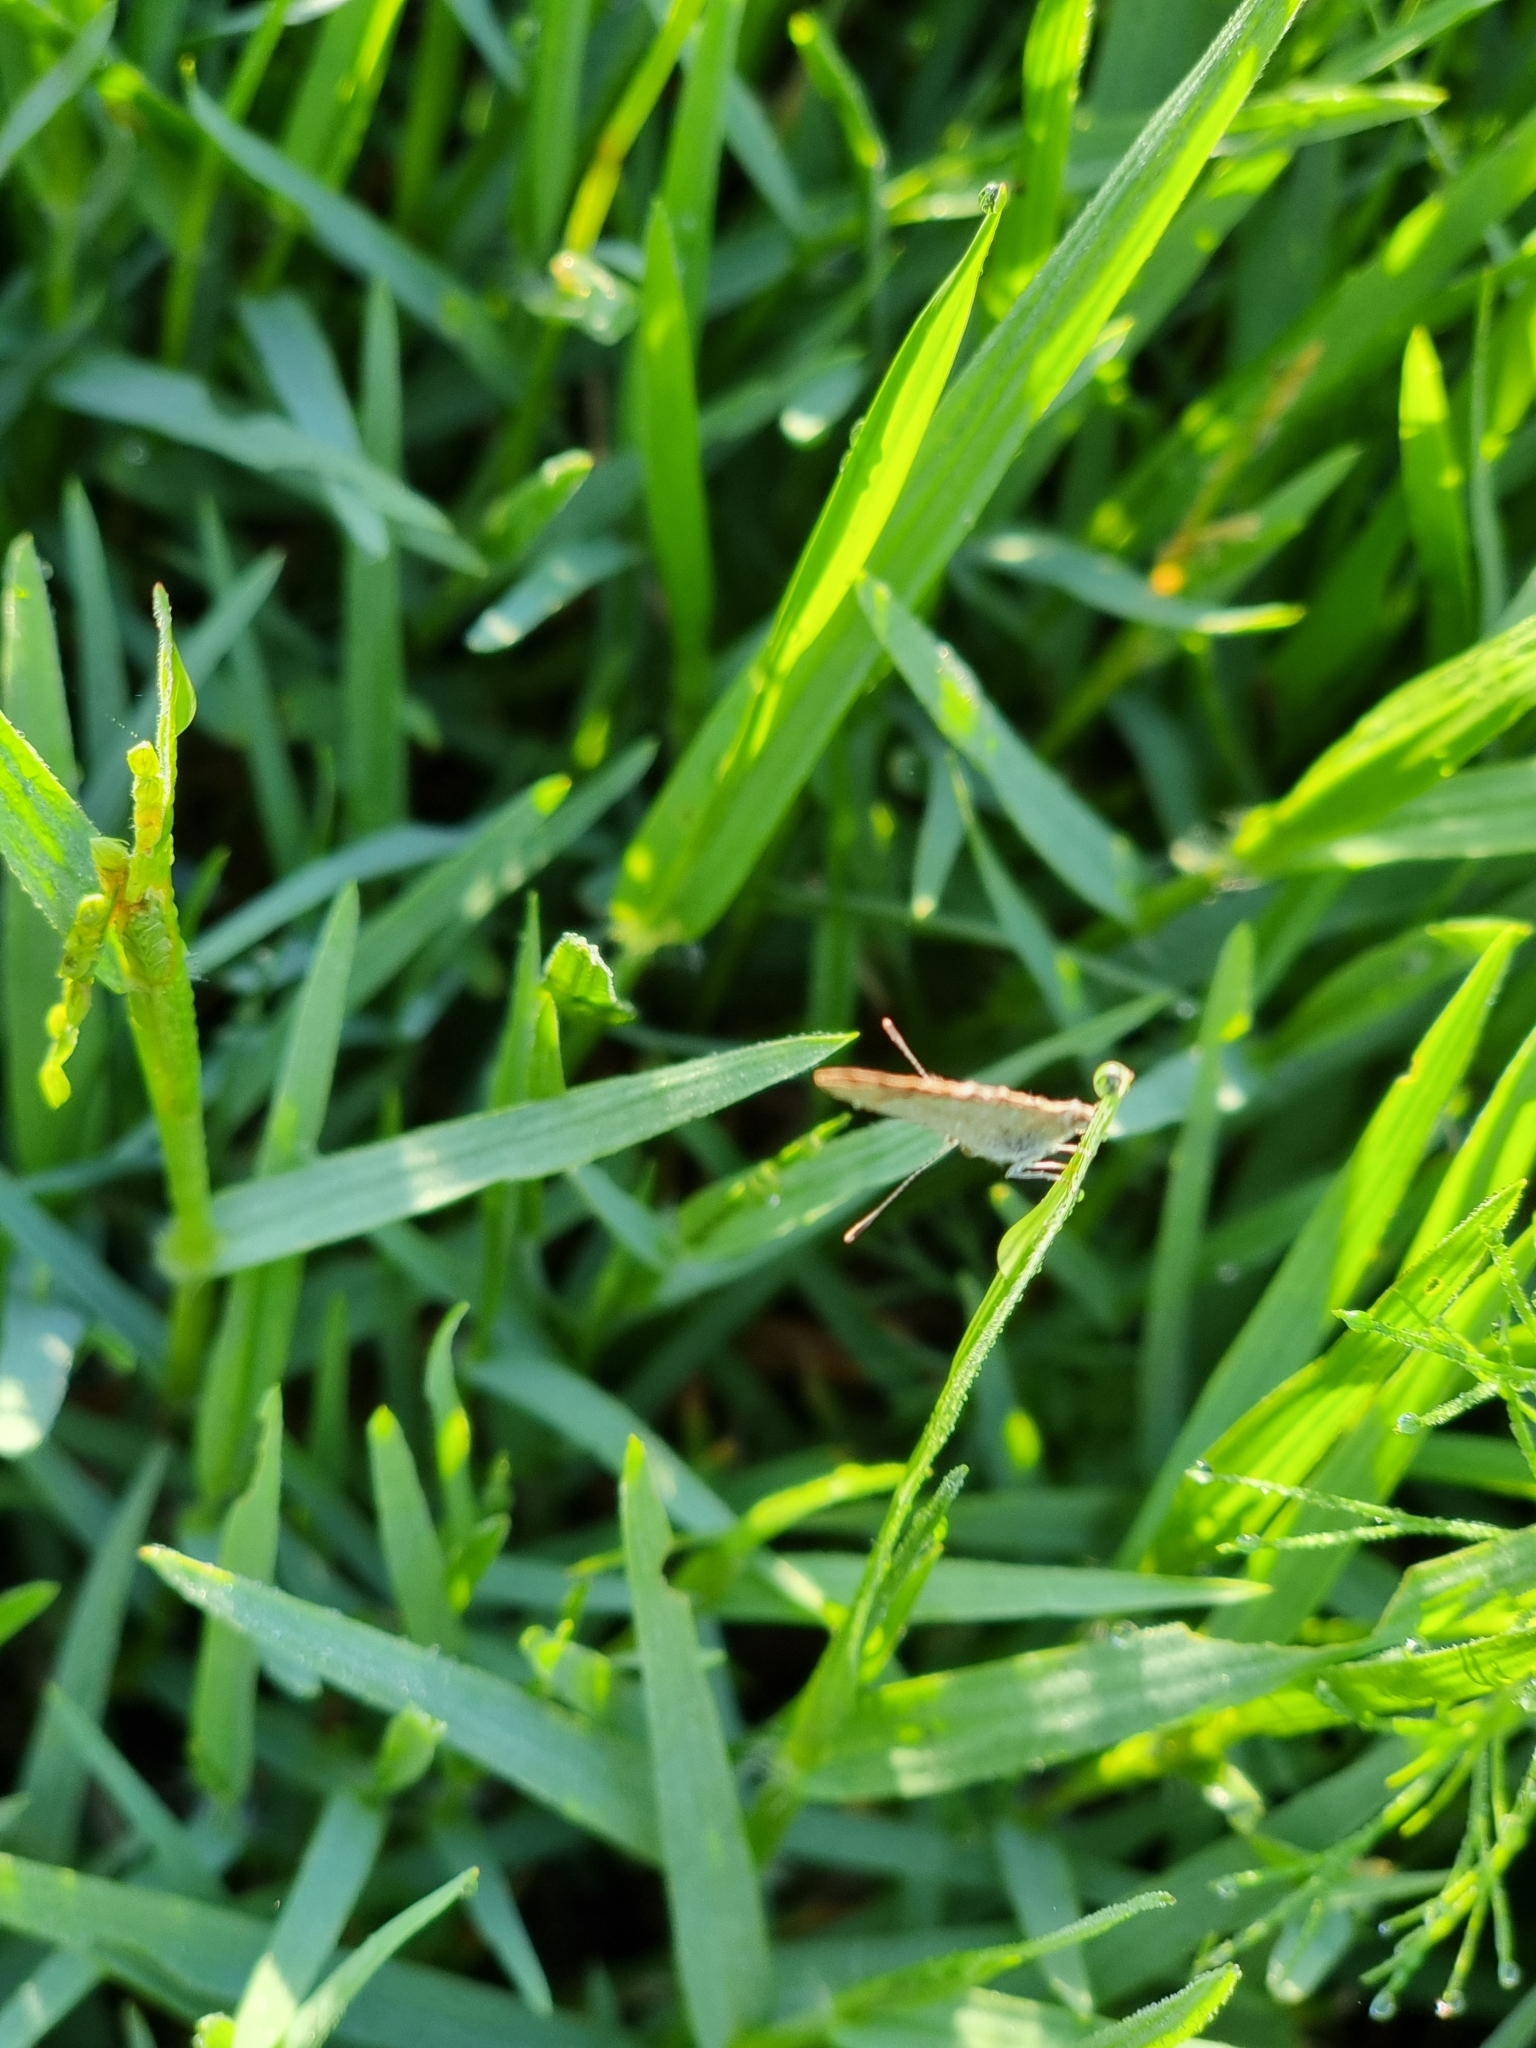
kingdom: Animalia
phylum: Arthropoda
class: Insecta
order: Lepidoptera
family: Lycaenidae
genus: Zizina
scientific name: Zizina otis
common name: Lesser grass blue
